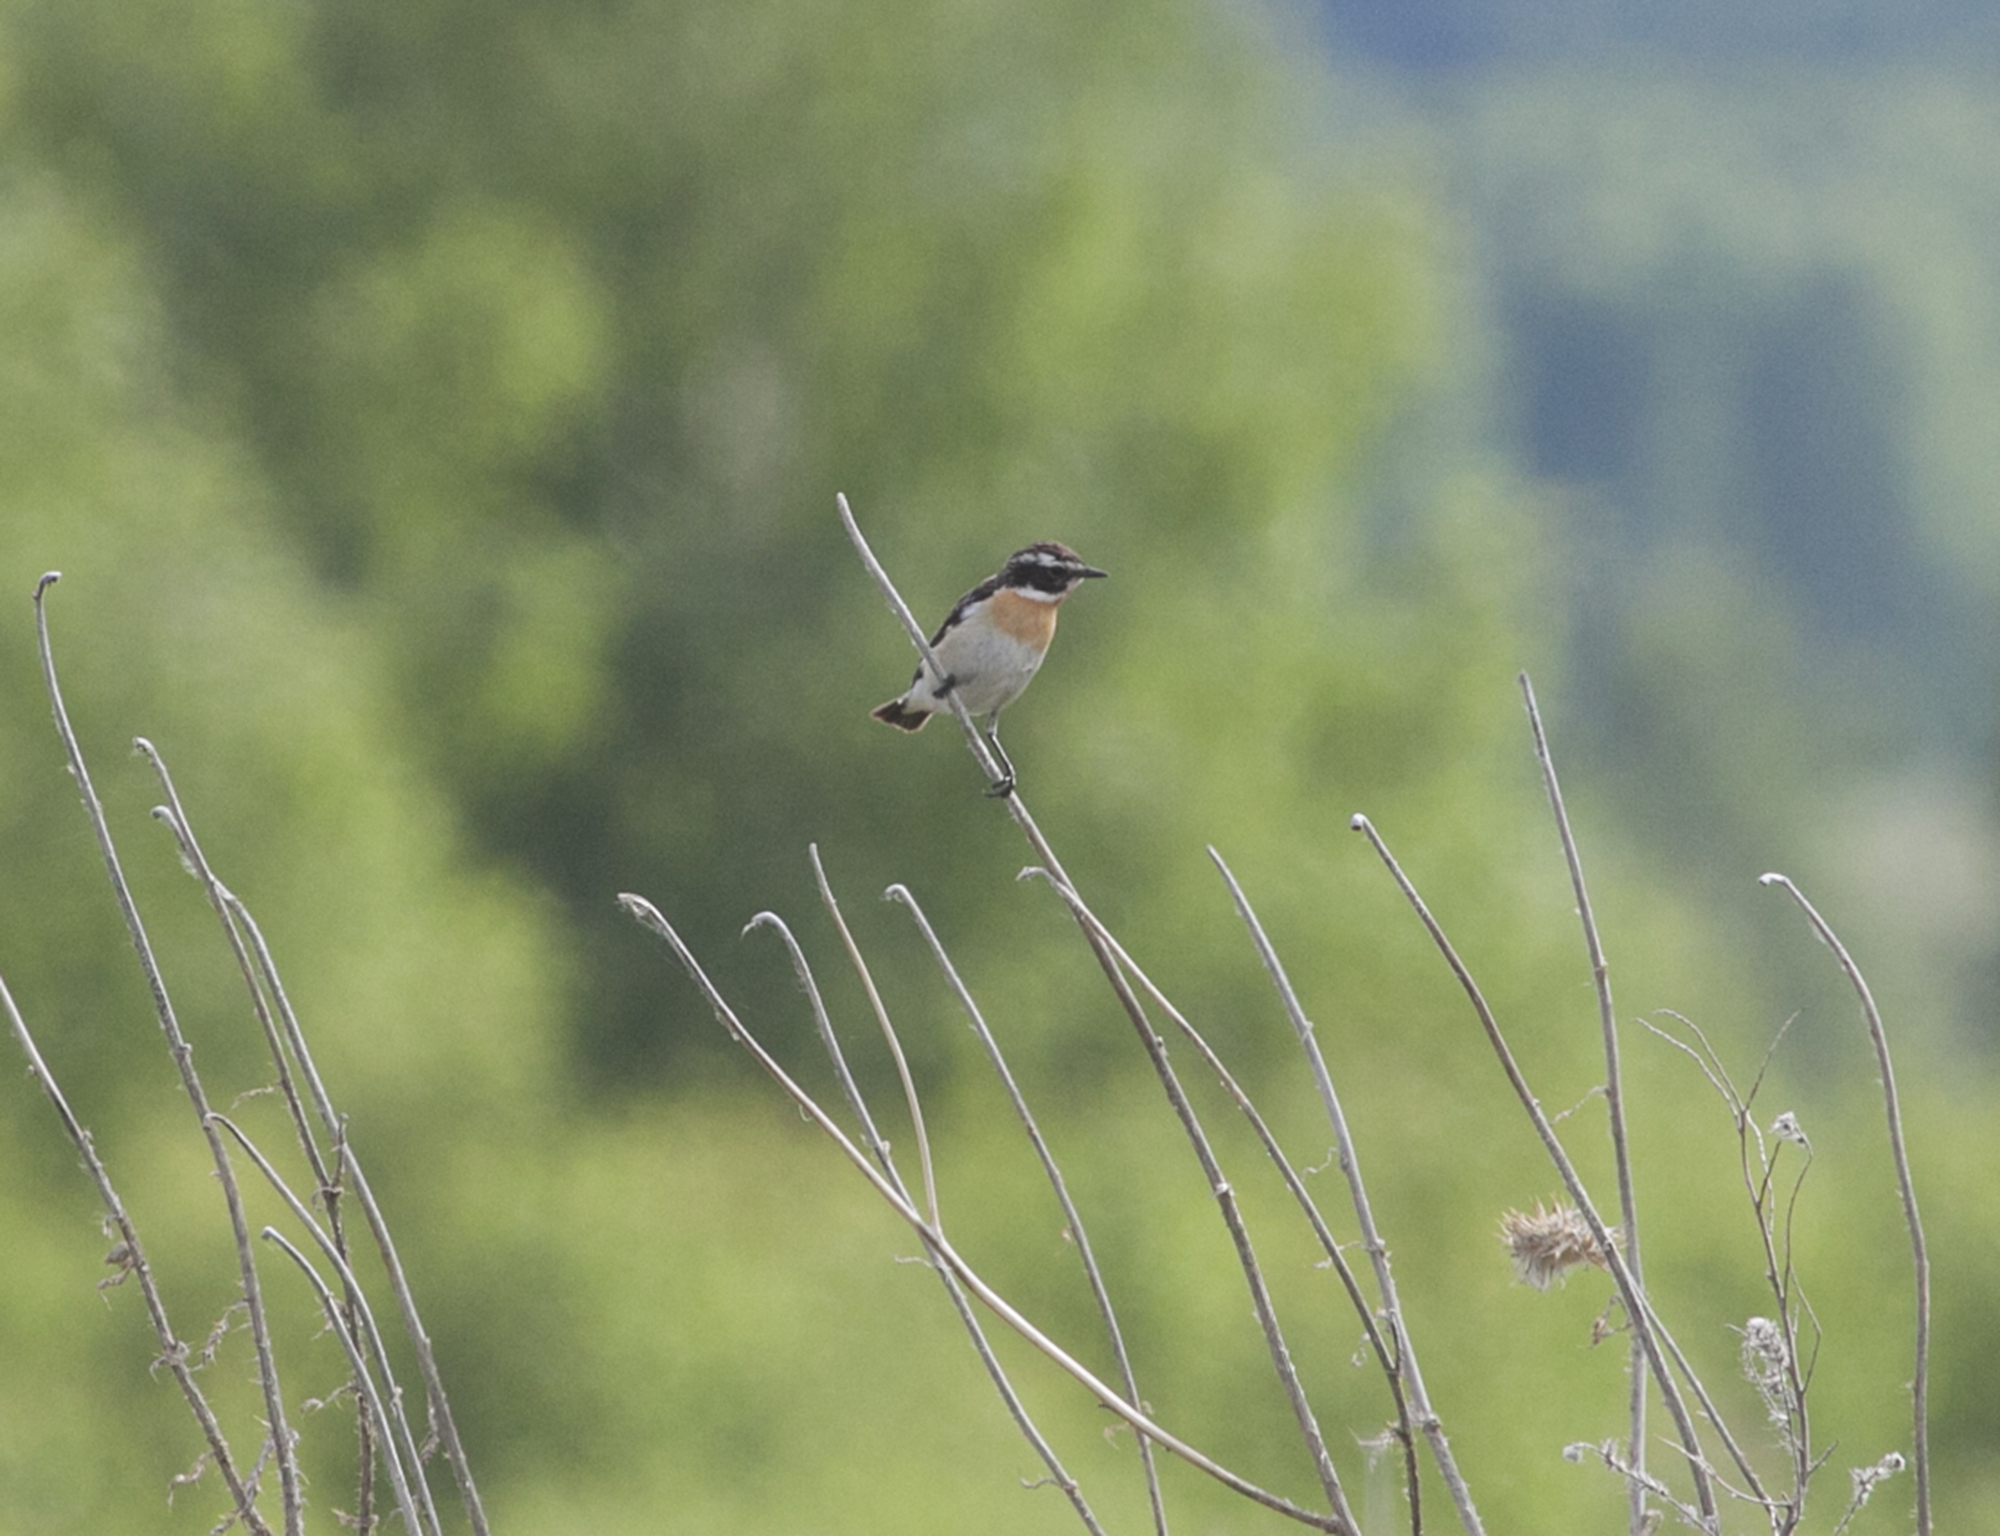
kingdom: Animalia
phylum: Chordata
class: Aves
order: Passeriformes
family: Muscicapidae
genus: Saxicola
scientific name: Saxicola rubetra
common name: Whinchat
